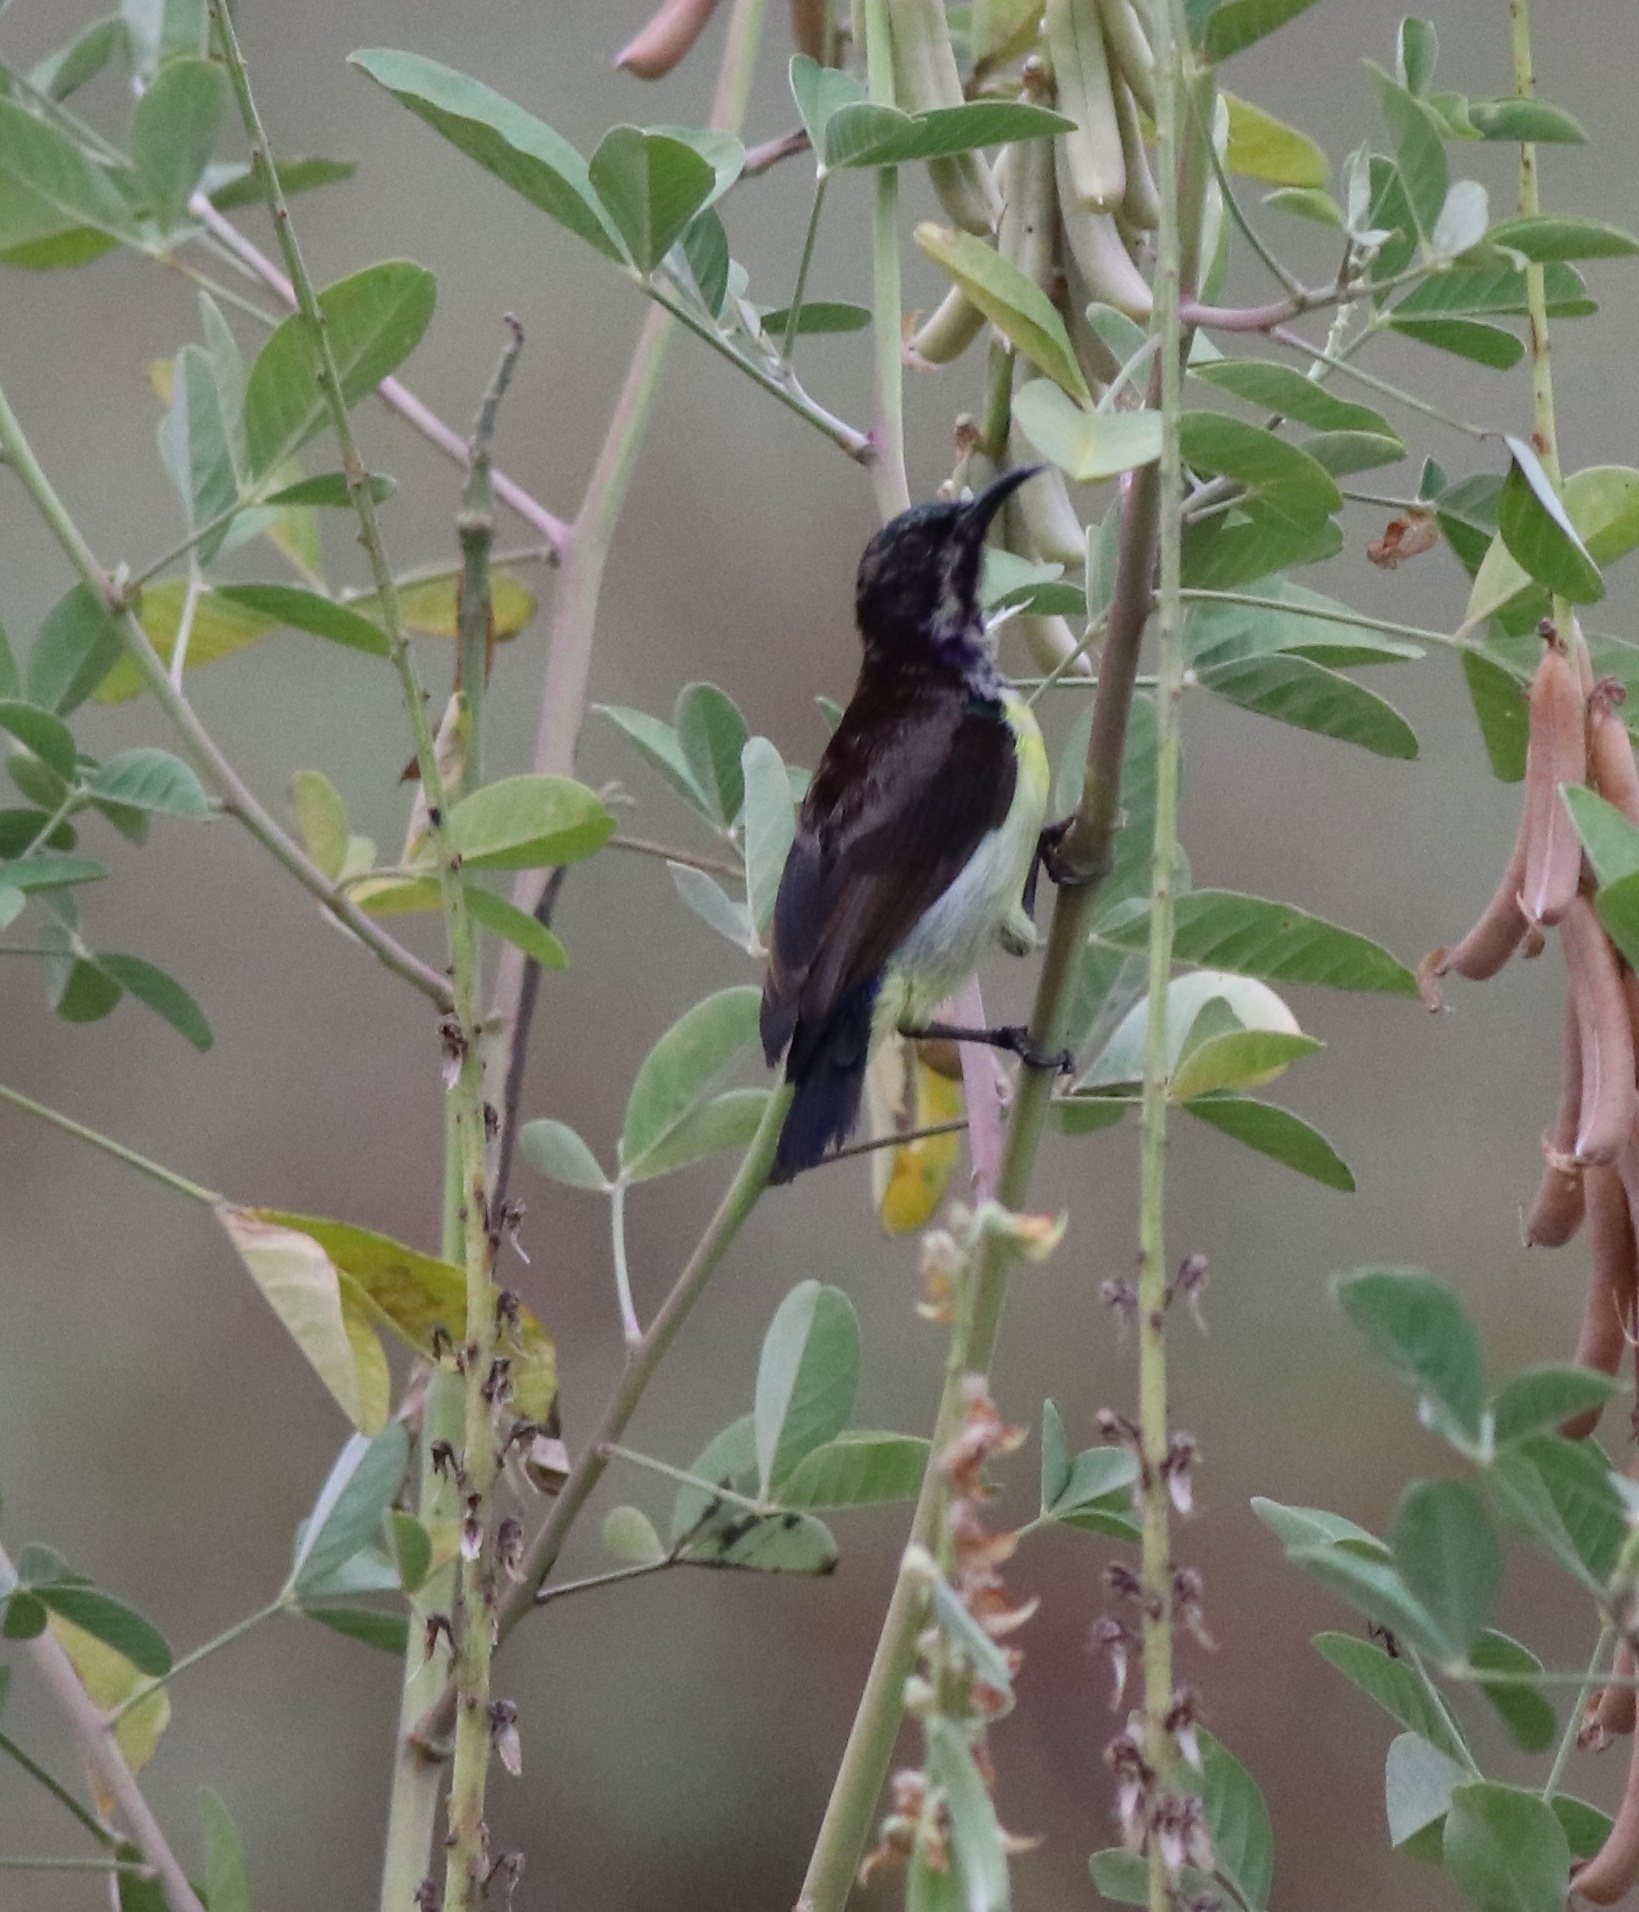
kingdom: Animalia
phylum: Chordata
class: Aves
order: Passeriformes
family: Nectariniidae
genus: Leptocoma
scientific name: Leptocoma zeylonica
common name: Purple-rumped sunbird
